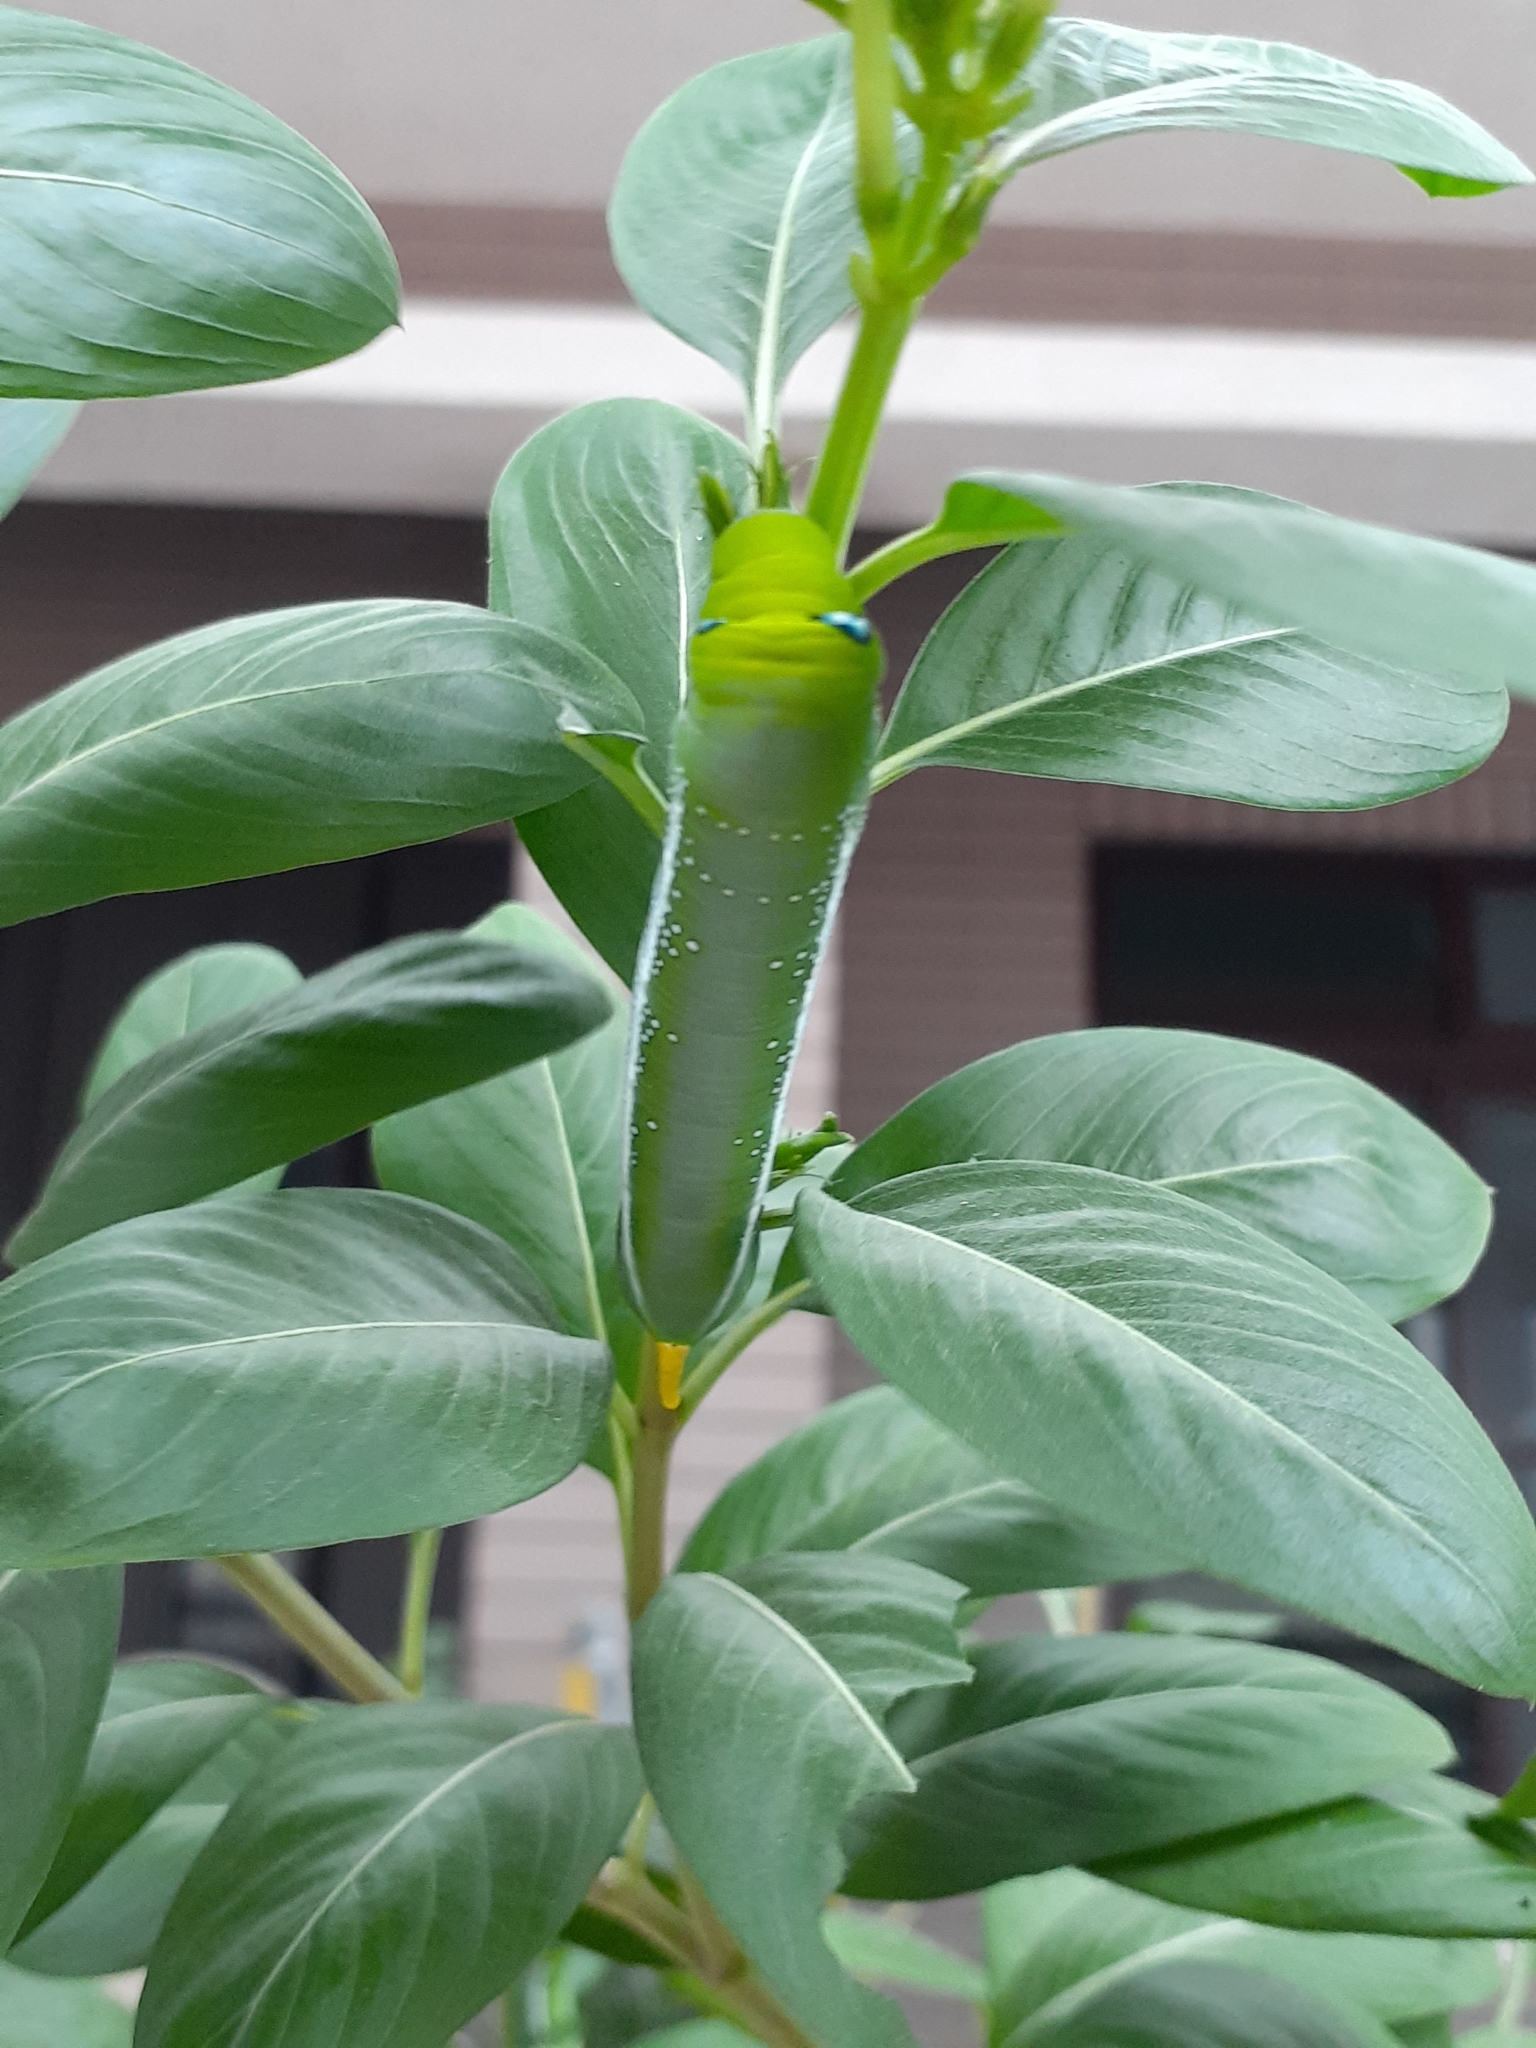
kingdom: Animalia
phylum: Arthropoda
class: Insecta
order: Lepidoptera
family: Sphingidae
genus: Daphnis
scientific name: Daphnis nerii
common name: Oleander hawk-moth
